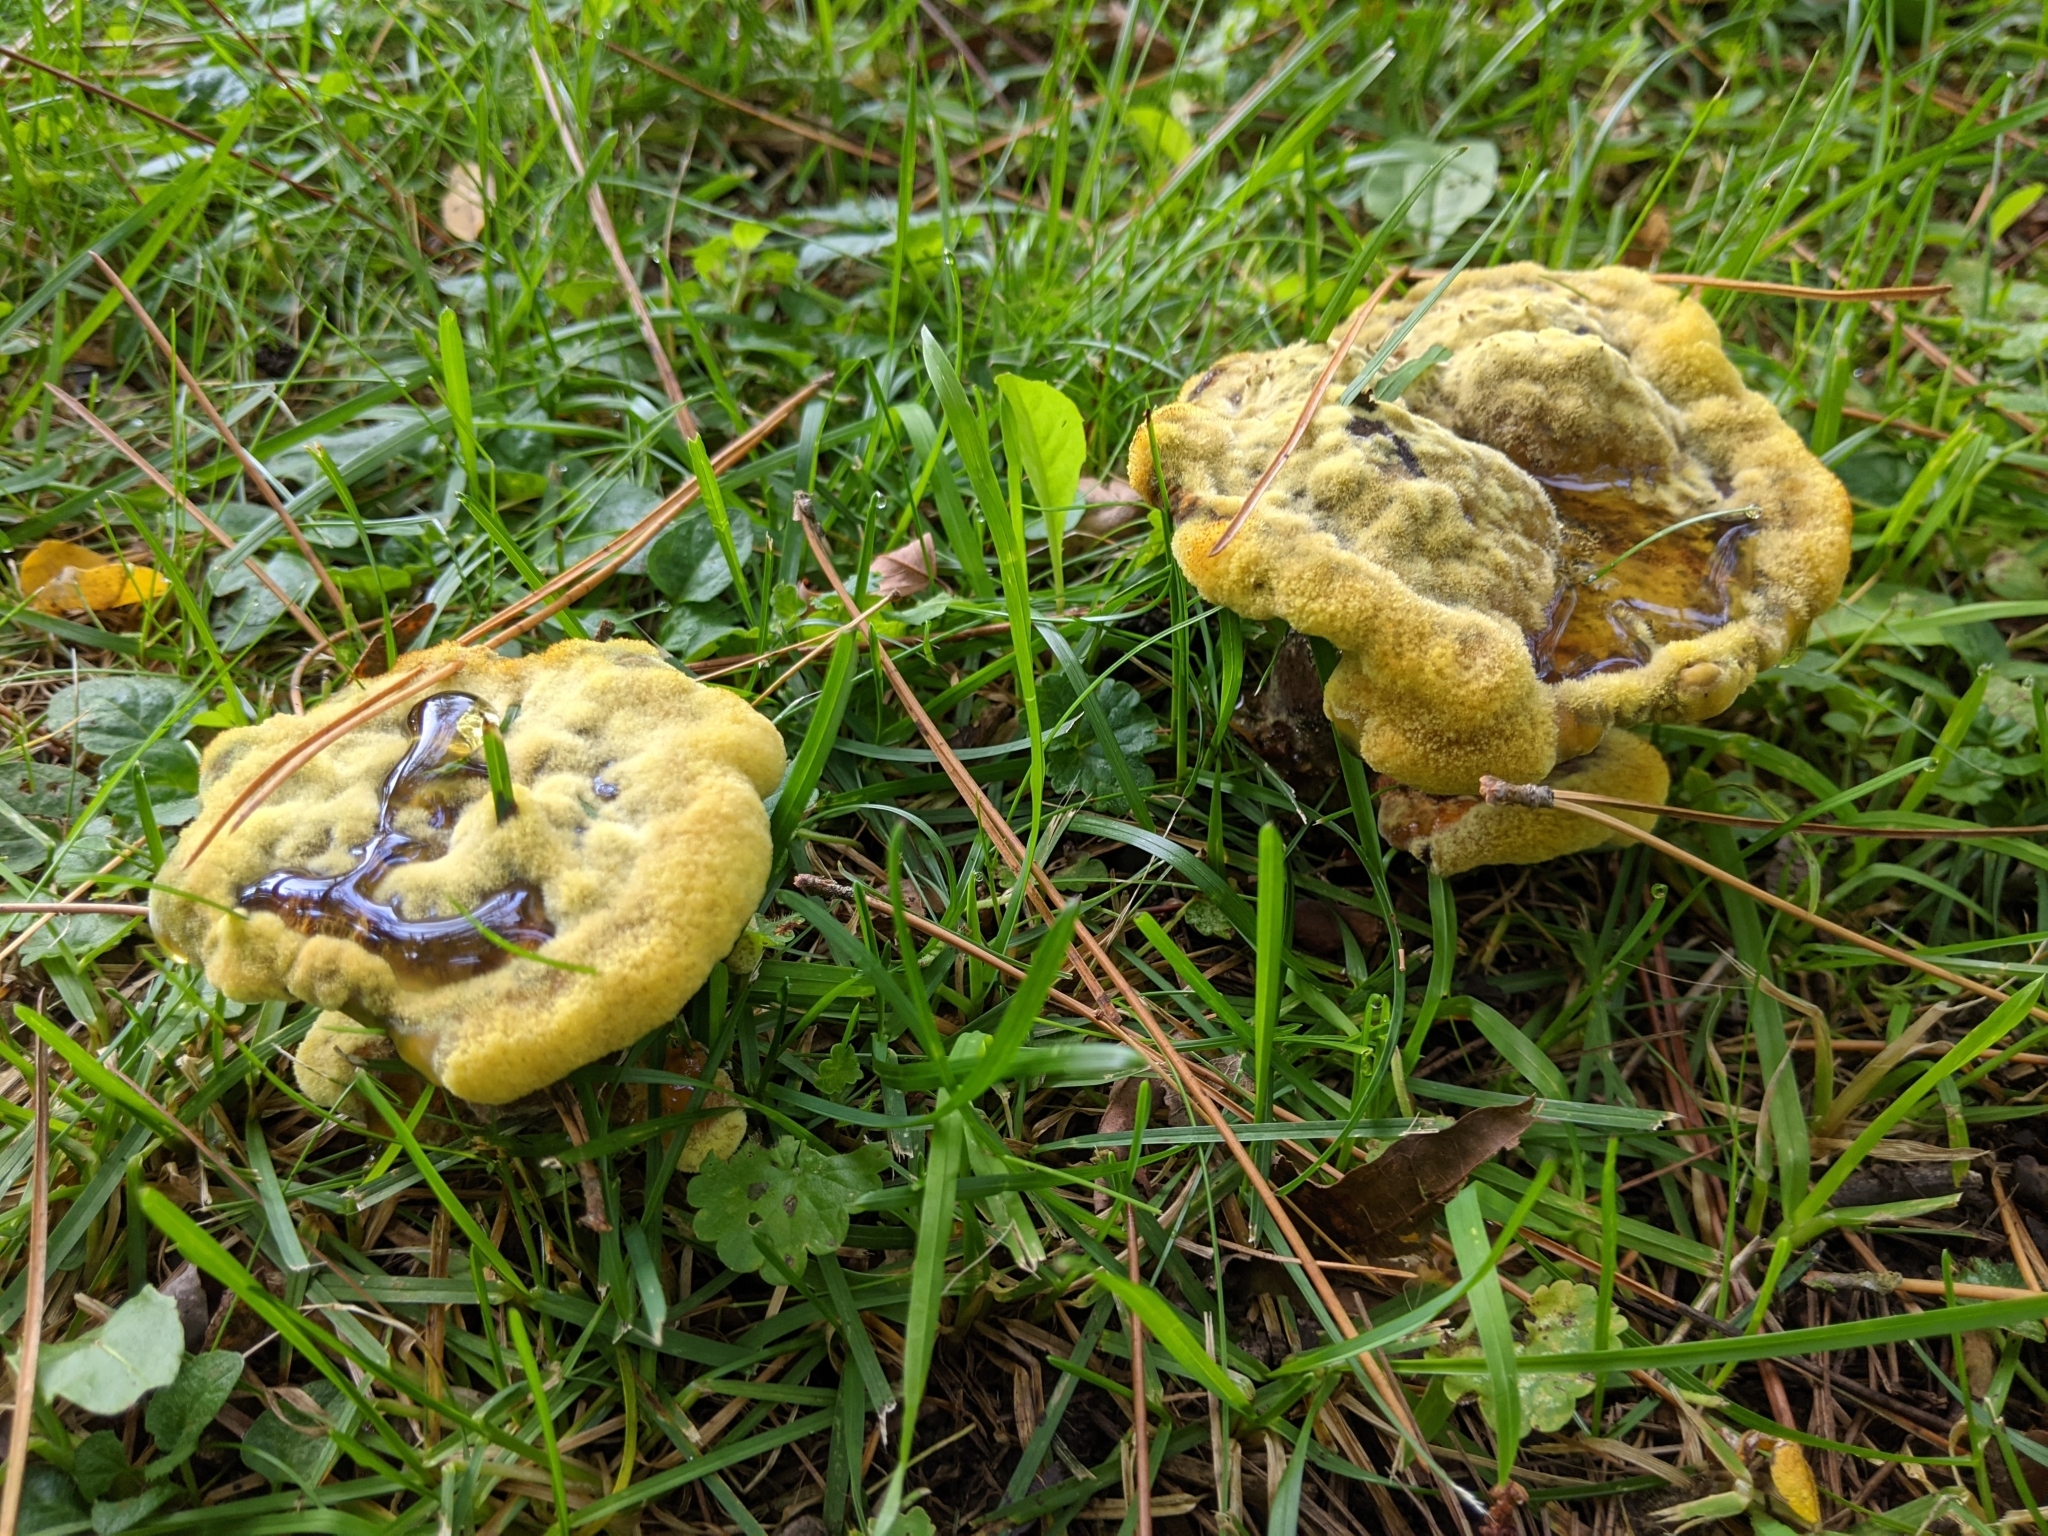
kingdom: Fungi
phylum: Basidiomycota
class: Agaricomycetes
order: Polyporales
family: Laetiporaceae
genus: Phaeolus
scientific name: Phaeolus schweinitzii
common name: Dyer's mazegill
